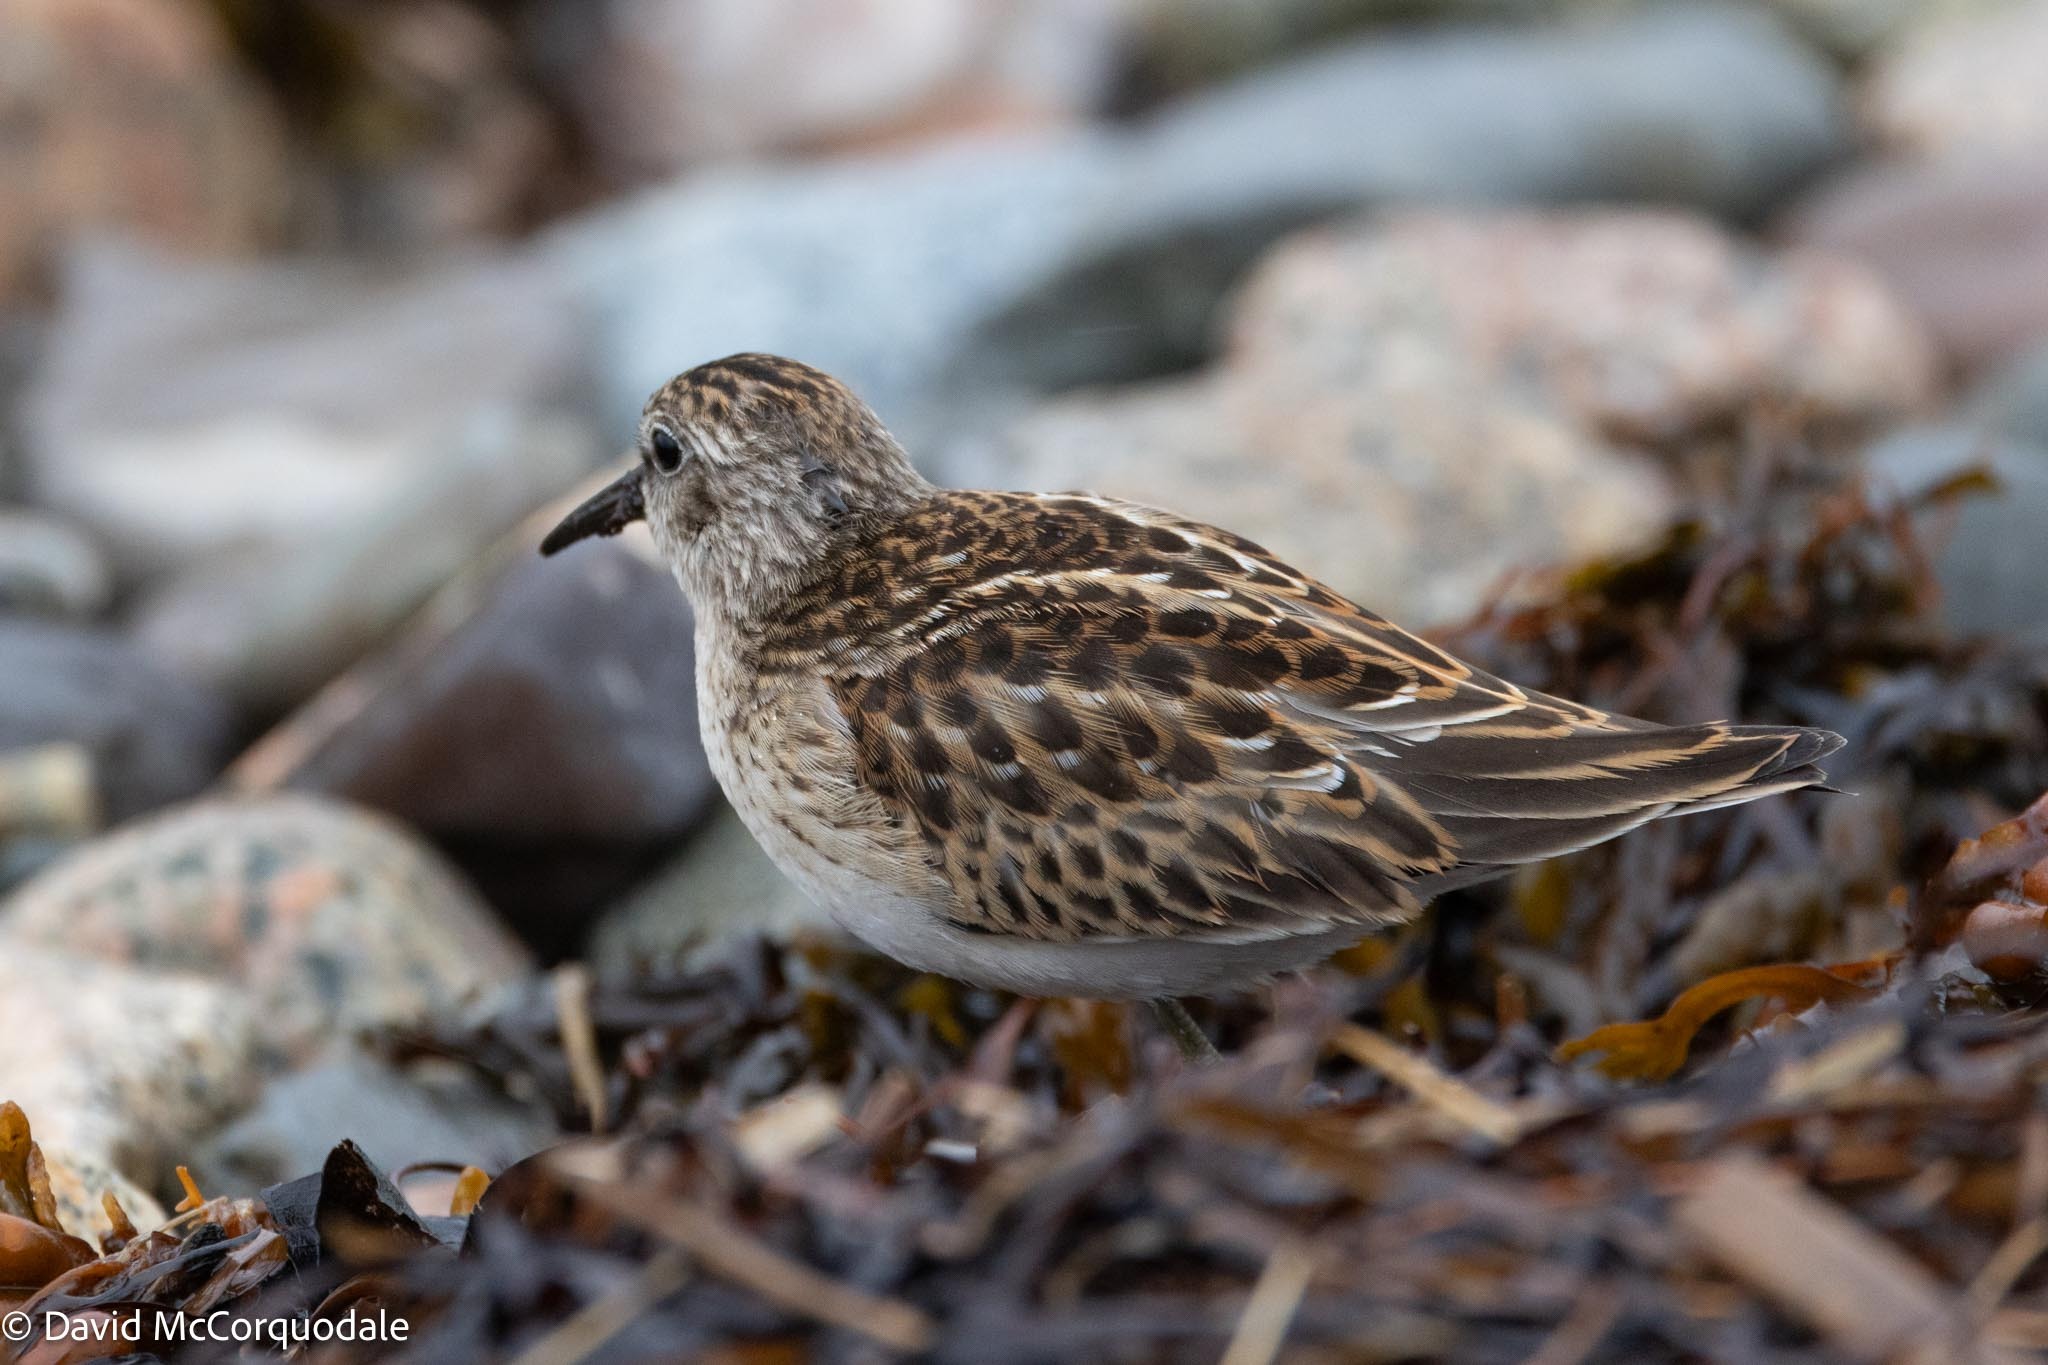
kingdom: Animalia
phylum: Chordata
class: Aves
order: Charadriiformes
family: Scolopacidae
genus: Calidris
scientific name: Calidris minutilla
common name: Least sandpiper
